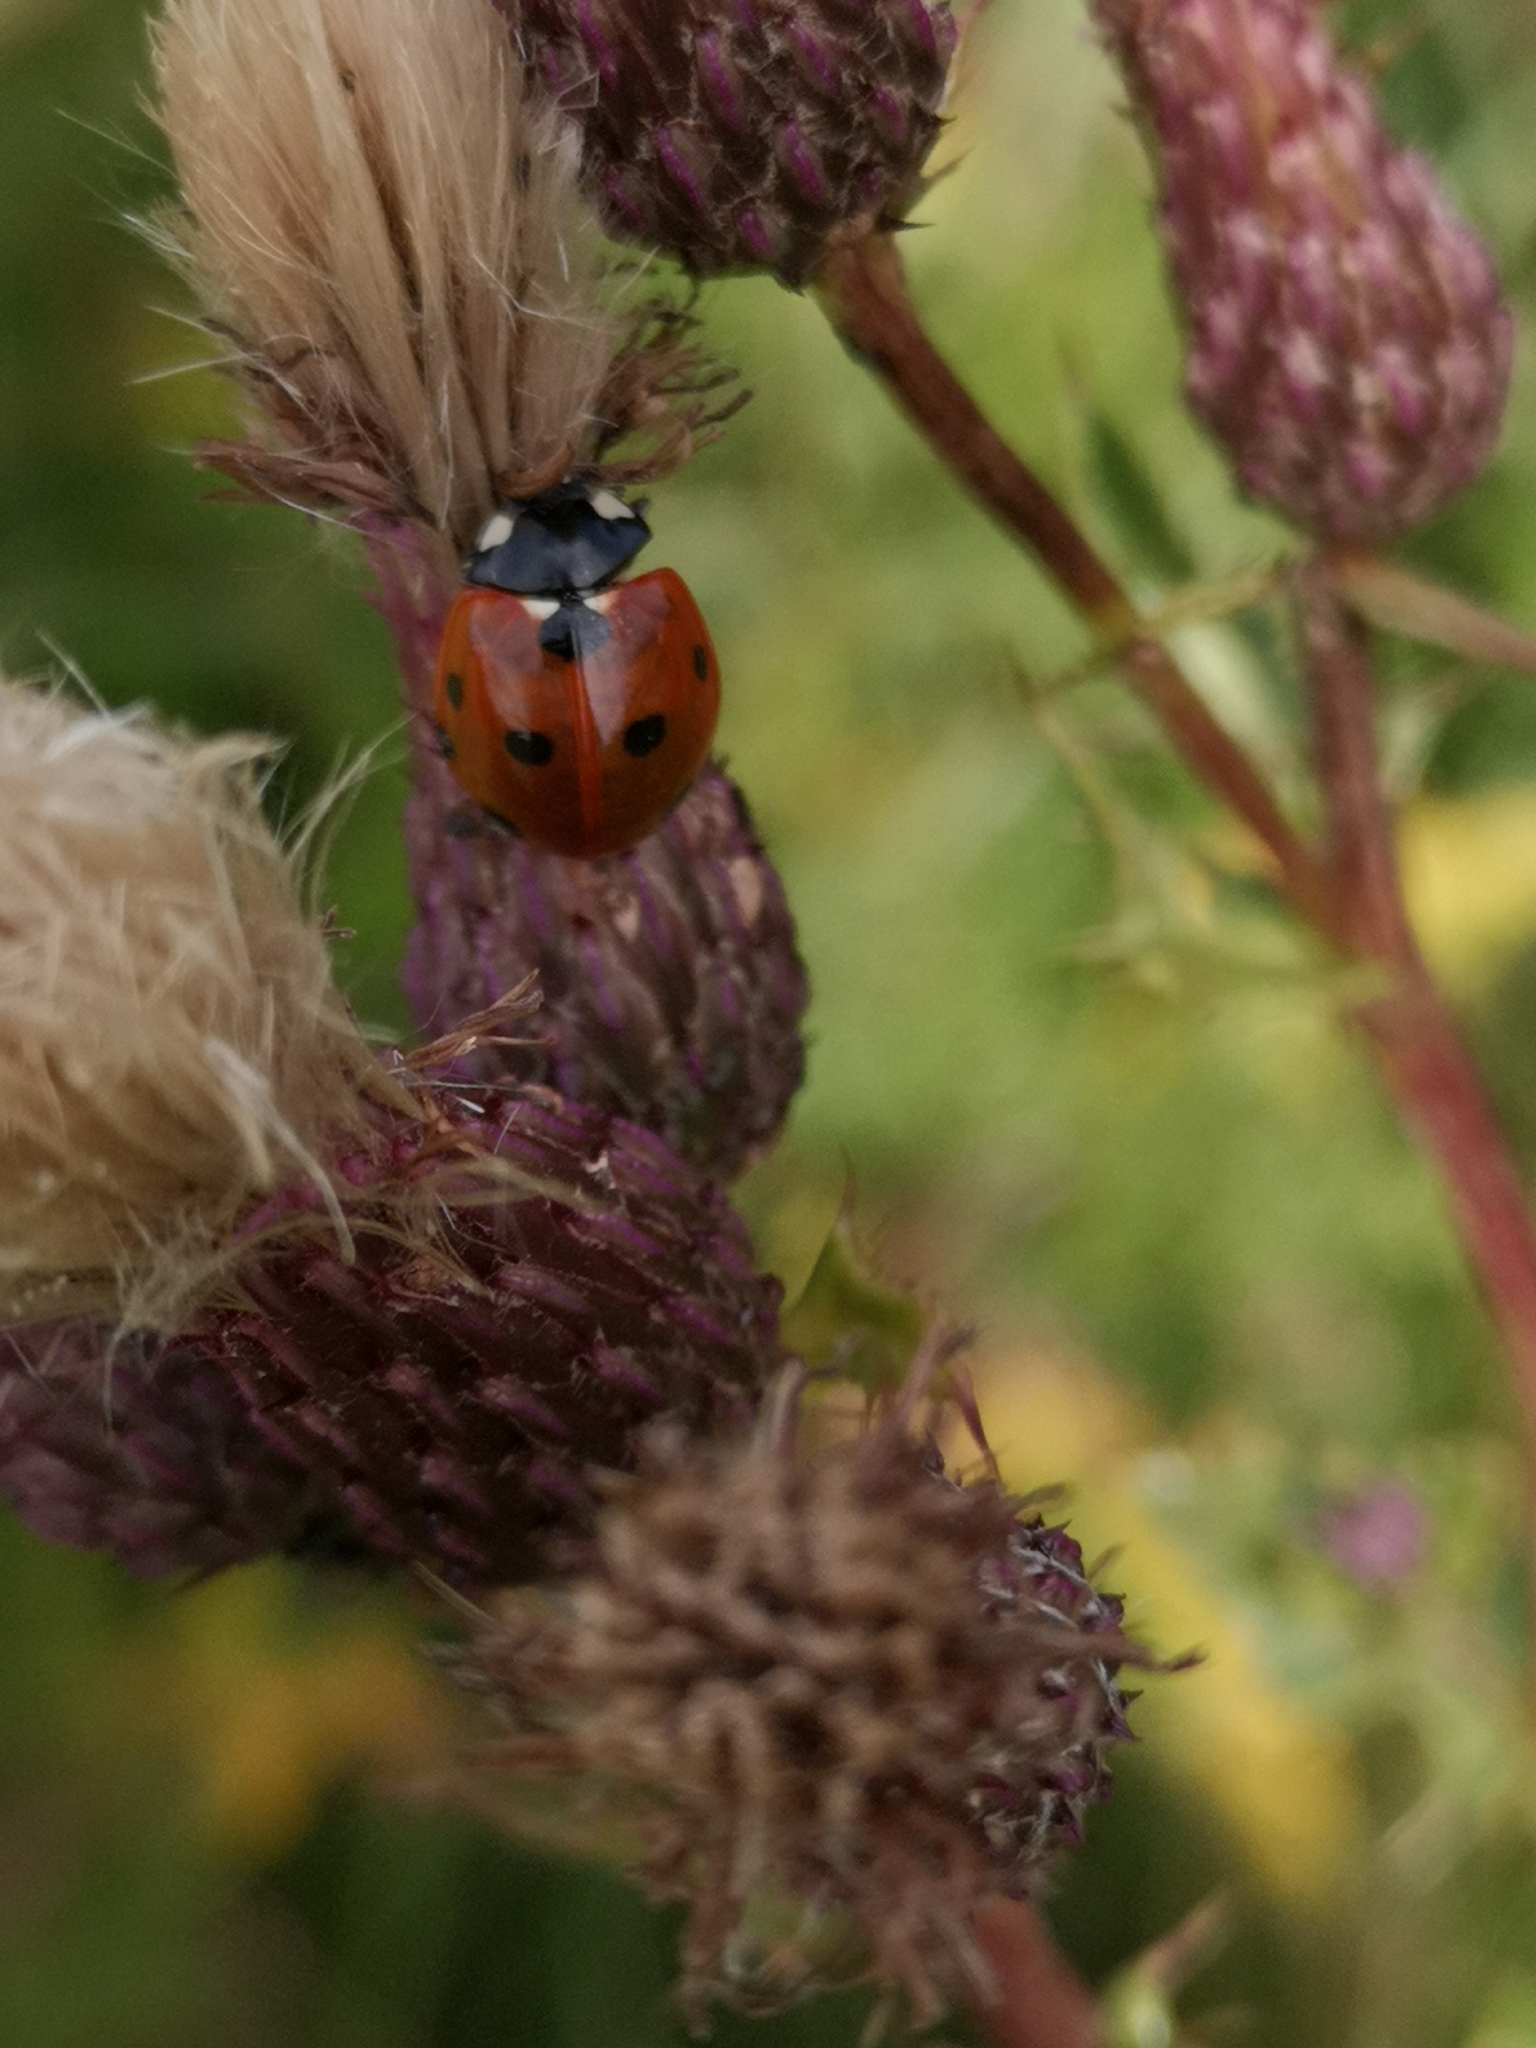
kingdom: Animalia
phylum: Arthropoda
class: Insecta
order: Coleoptera
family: Coccinellidae
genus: Coccinella
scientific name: Coccinella septempunctata
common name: Sevenspotted lady beetle
